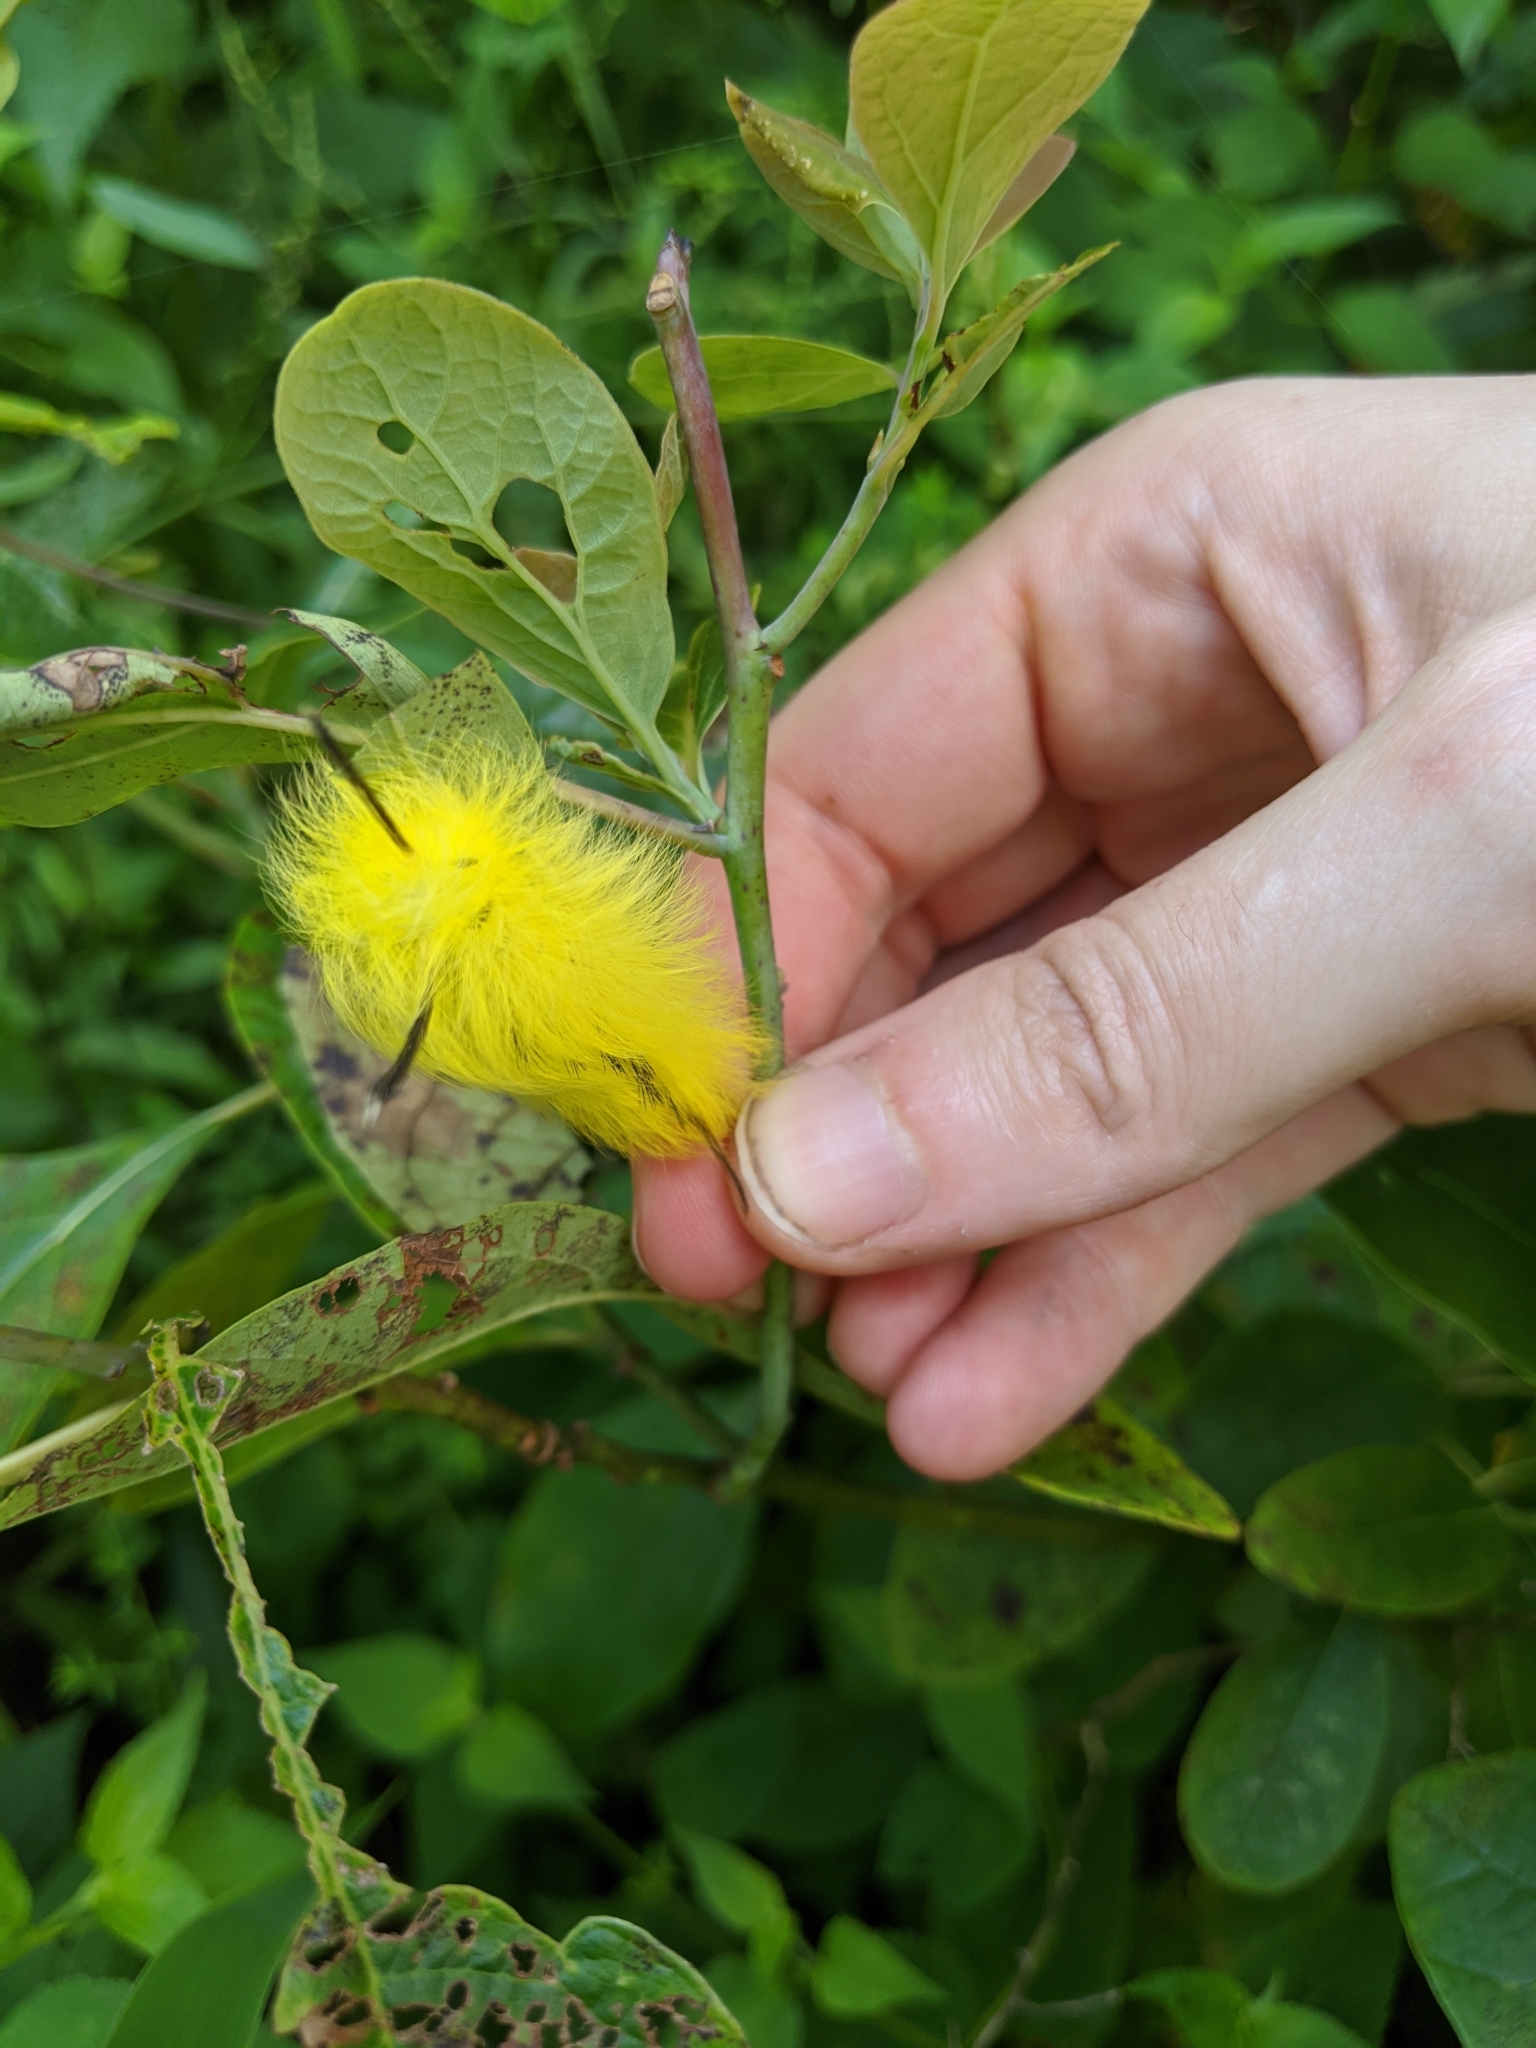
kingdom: Animalia
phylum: Arthropoda
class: Insecta
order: Lepidoptera
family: Apatelodidae
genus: Hygrochroa
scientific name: Hygrochroa Apatelodes torrefacta
